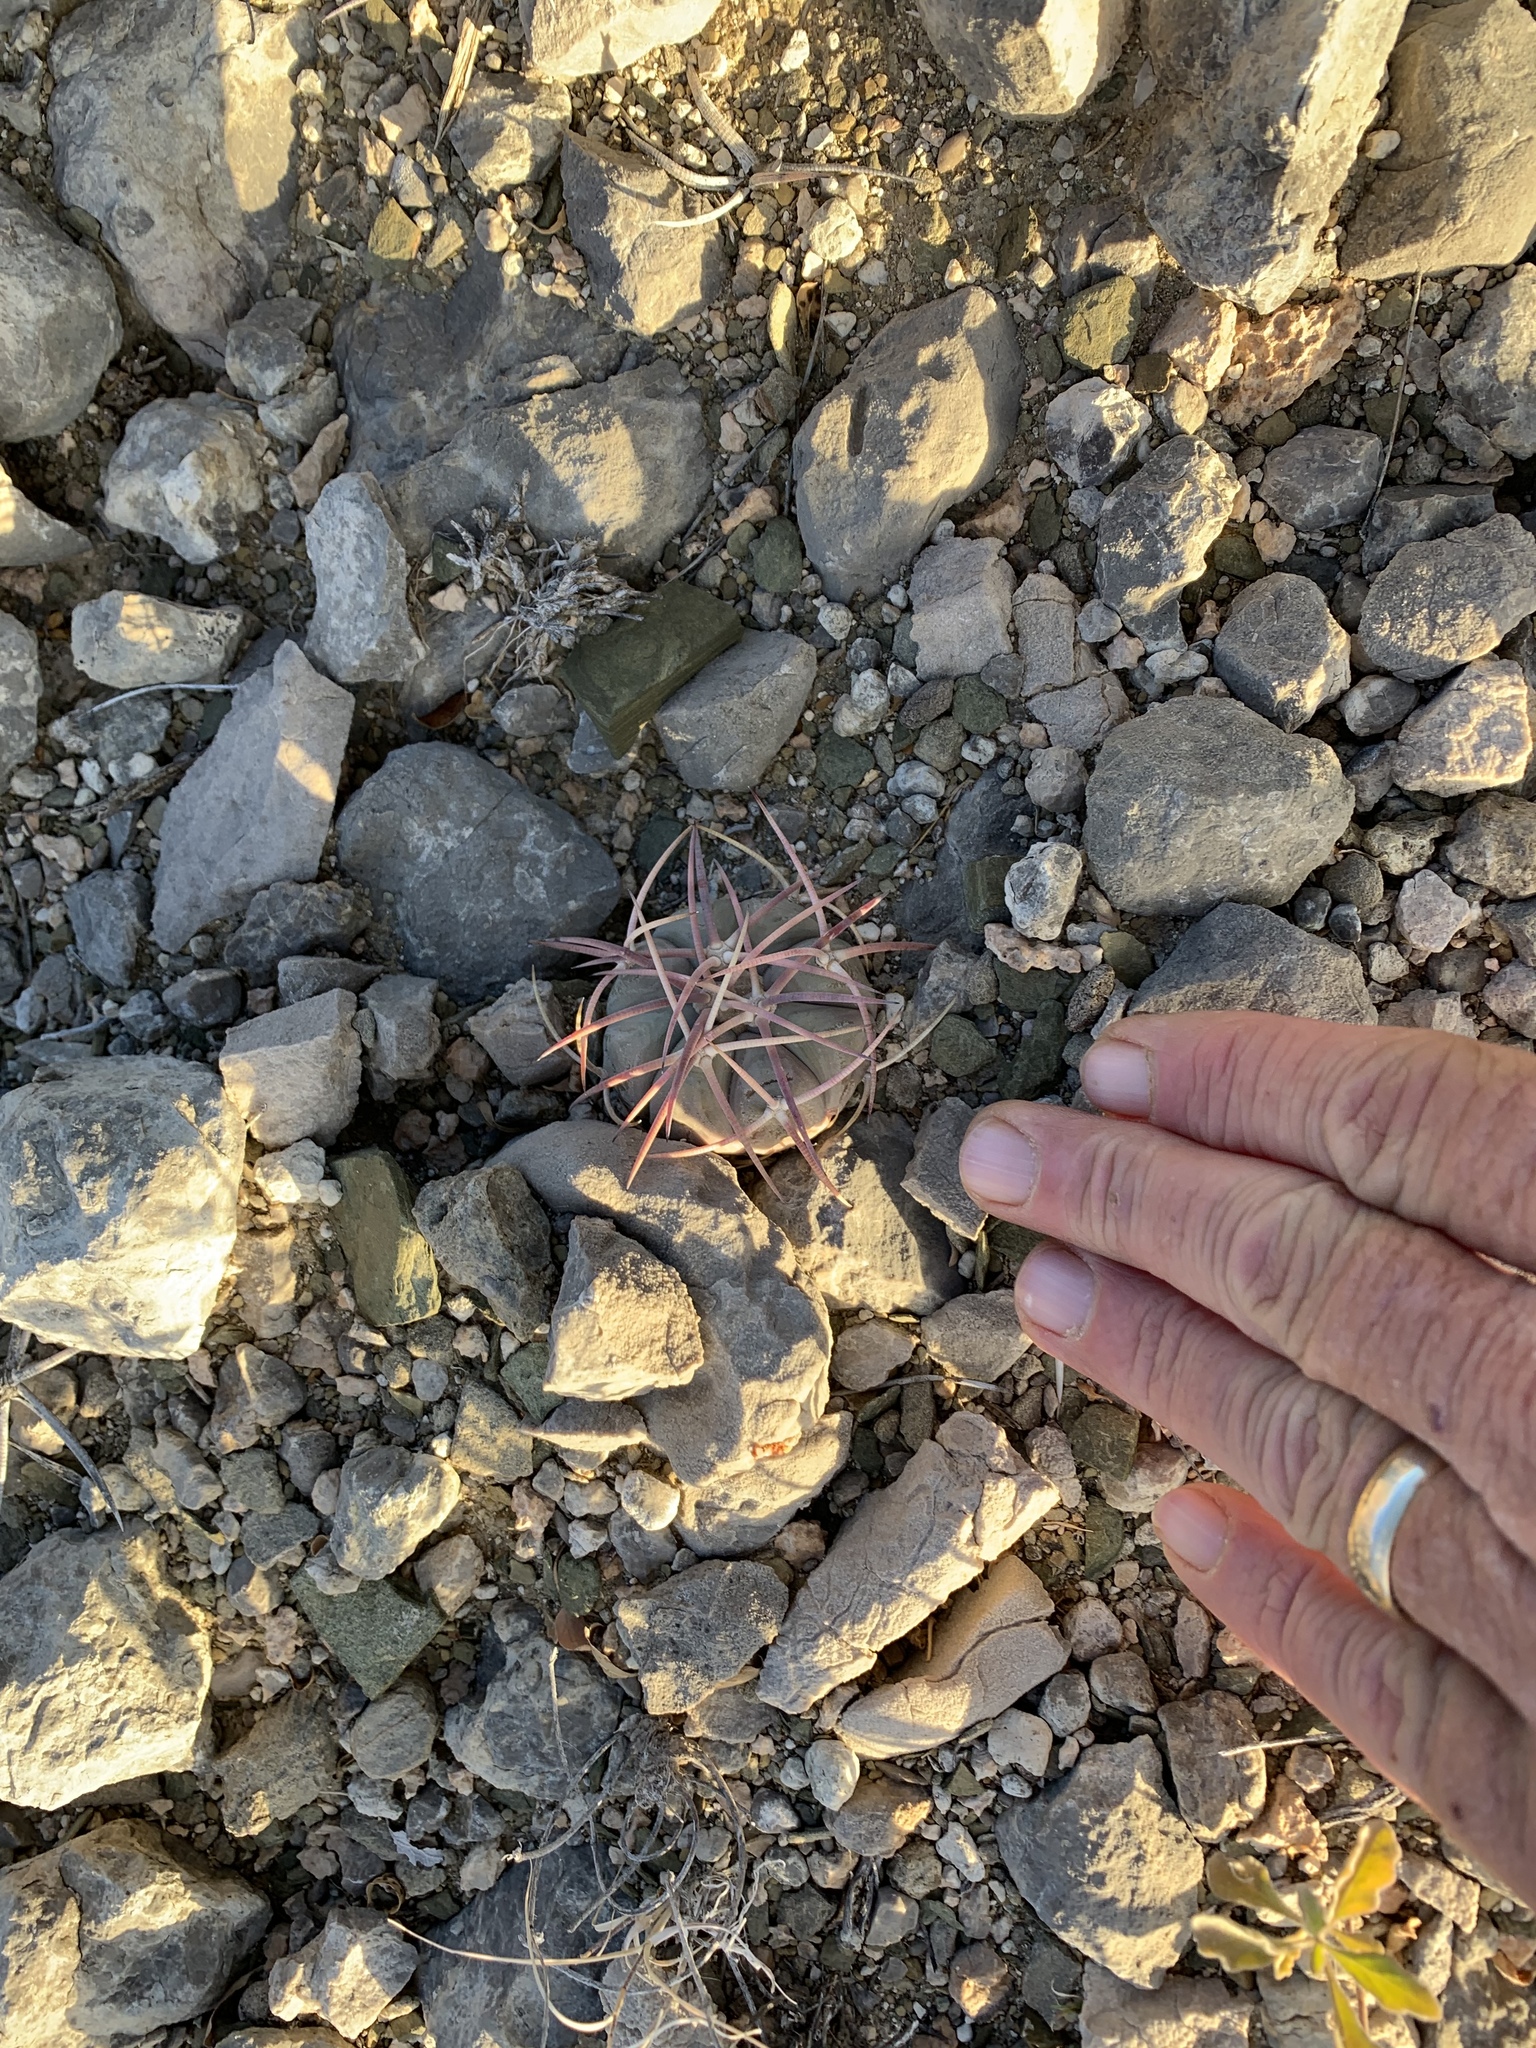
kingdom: Plantae
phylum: Tracheophyta
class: Magnoliopsida
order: Caryophyllales
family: Cactaceae
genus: Echinocactus
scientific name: Echinocactus horizonthalonius
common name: Devilshead
